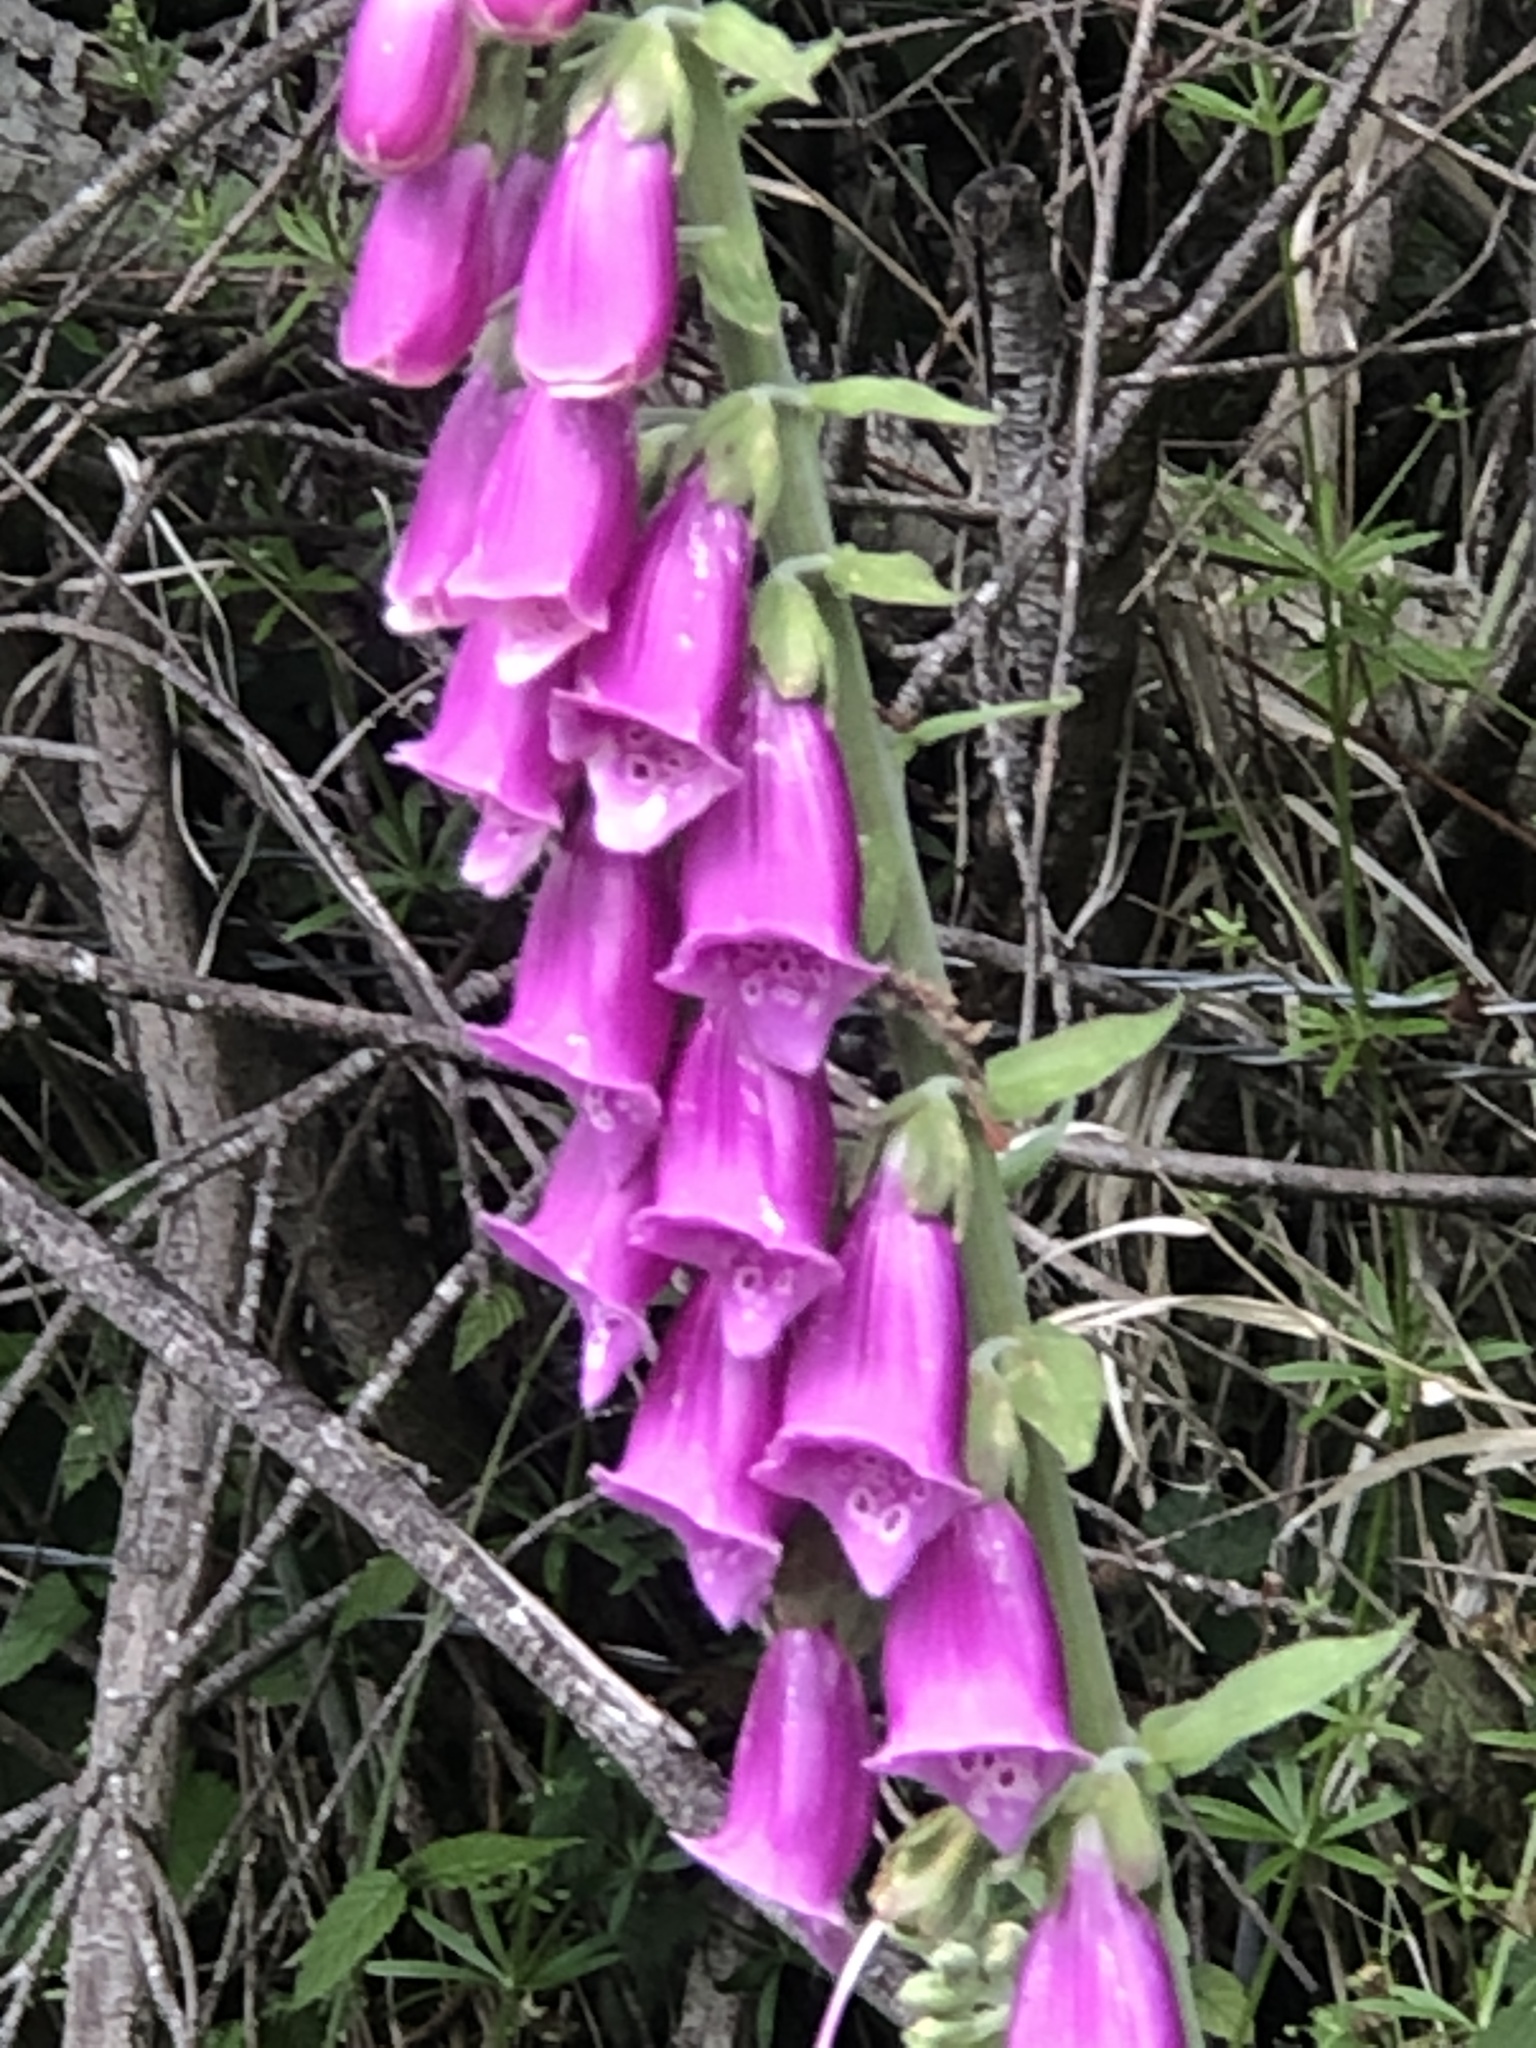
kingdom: Plantae
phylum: Tracheophyta
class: Magnoliopsida
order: Lamiales
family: Plantaginaceae
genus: Digitalis
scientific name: Digitalis purpurea
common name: Foxglove
